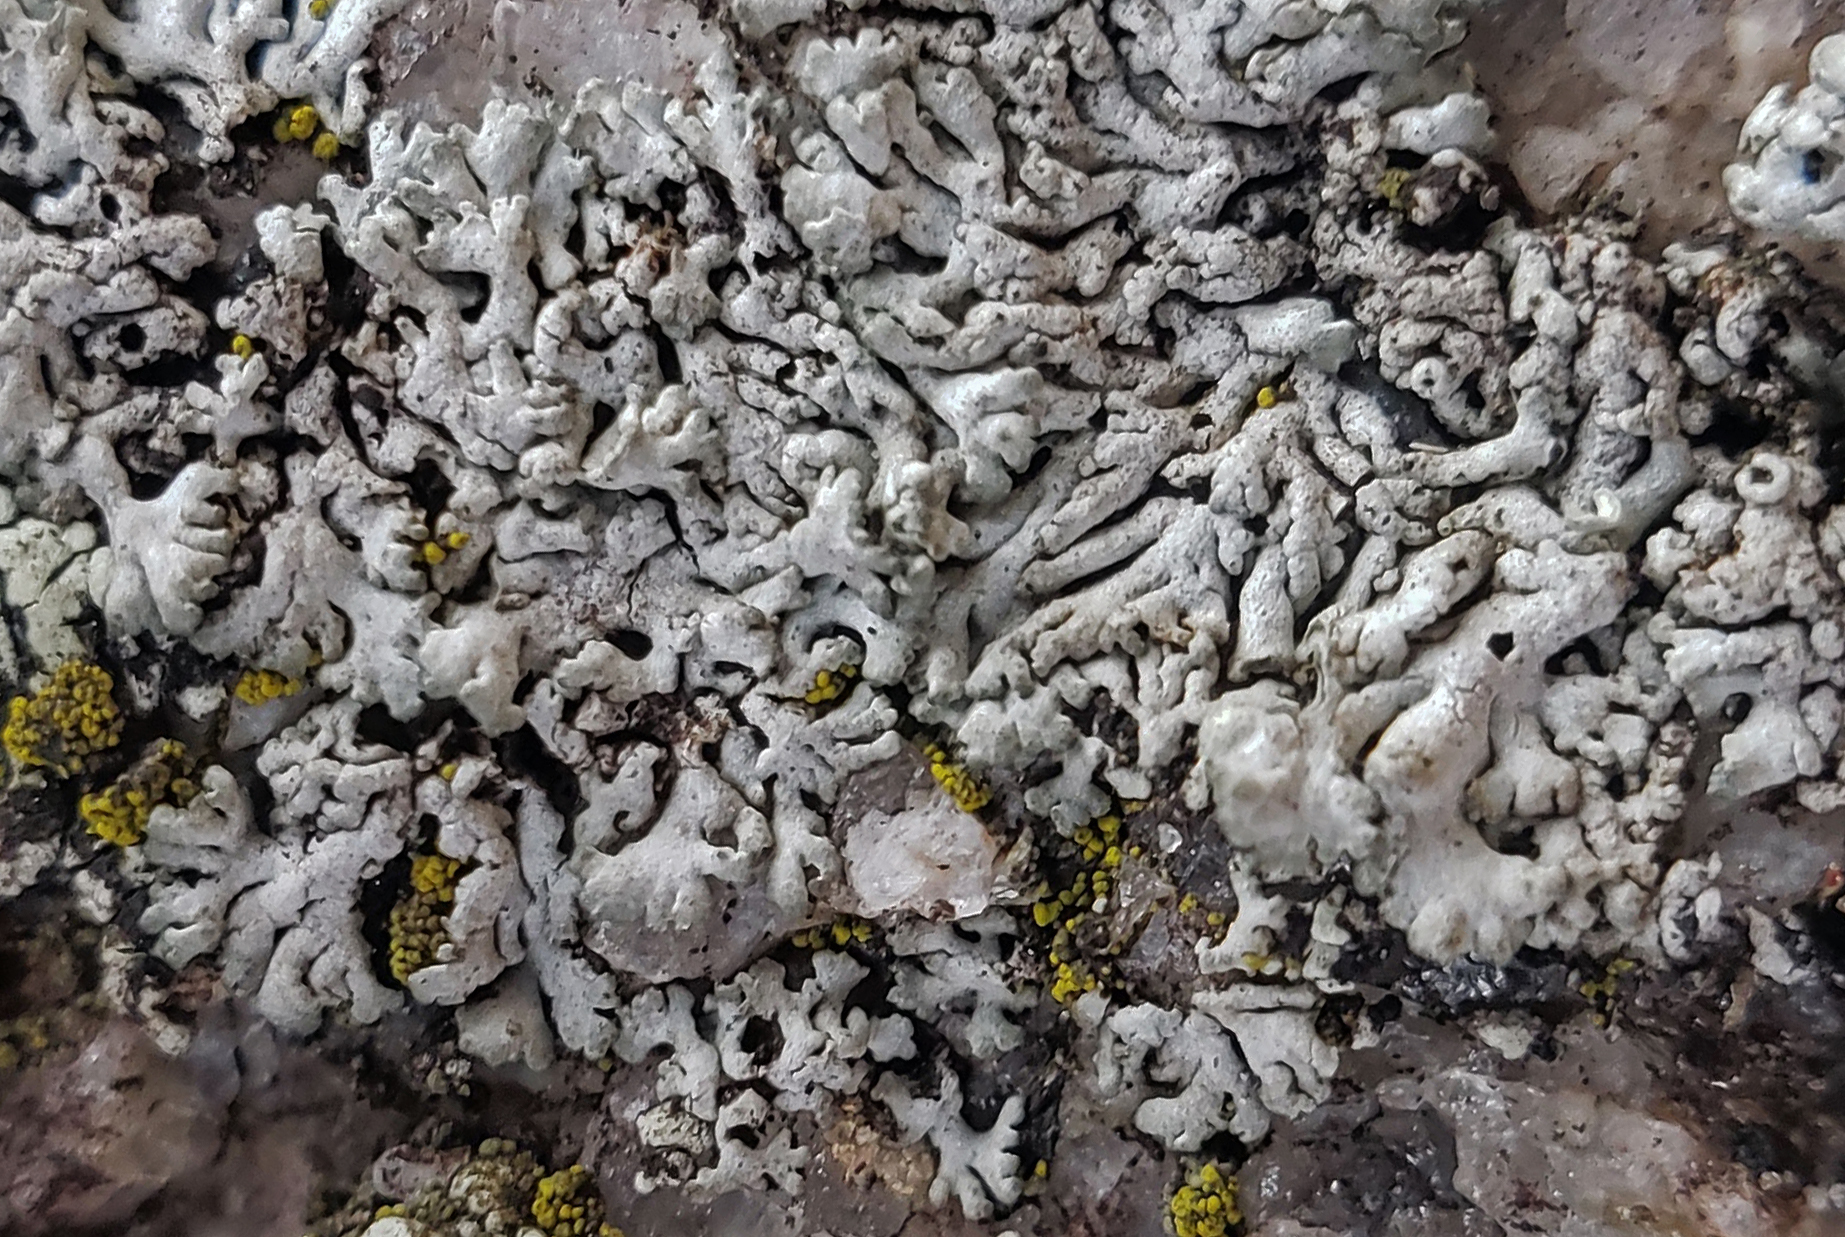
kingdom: Fungi
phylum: Ascomycota
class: Lecanoromycetes
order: Caliciales
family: Physciaceae
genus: Physcia
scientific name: Physcia phaea
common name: Black-eyed rosette lichen
